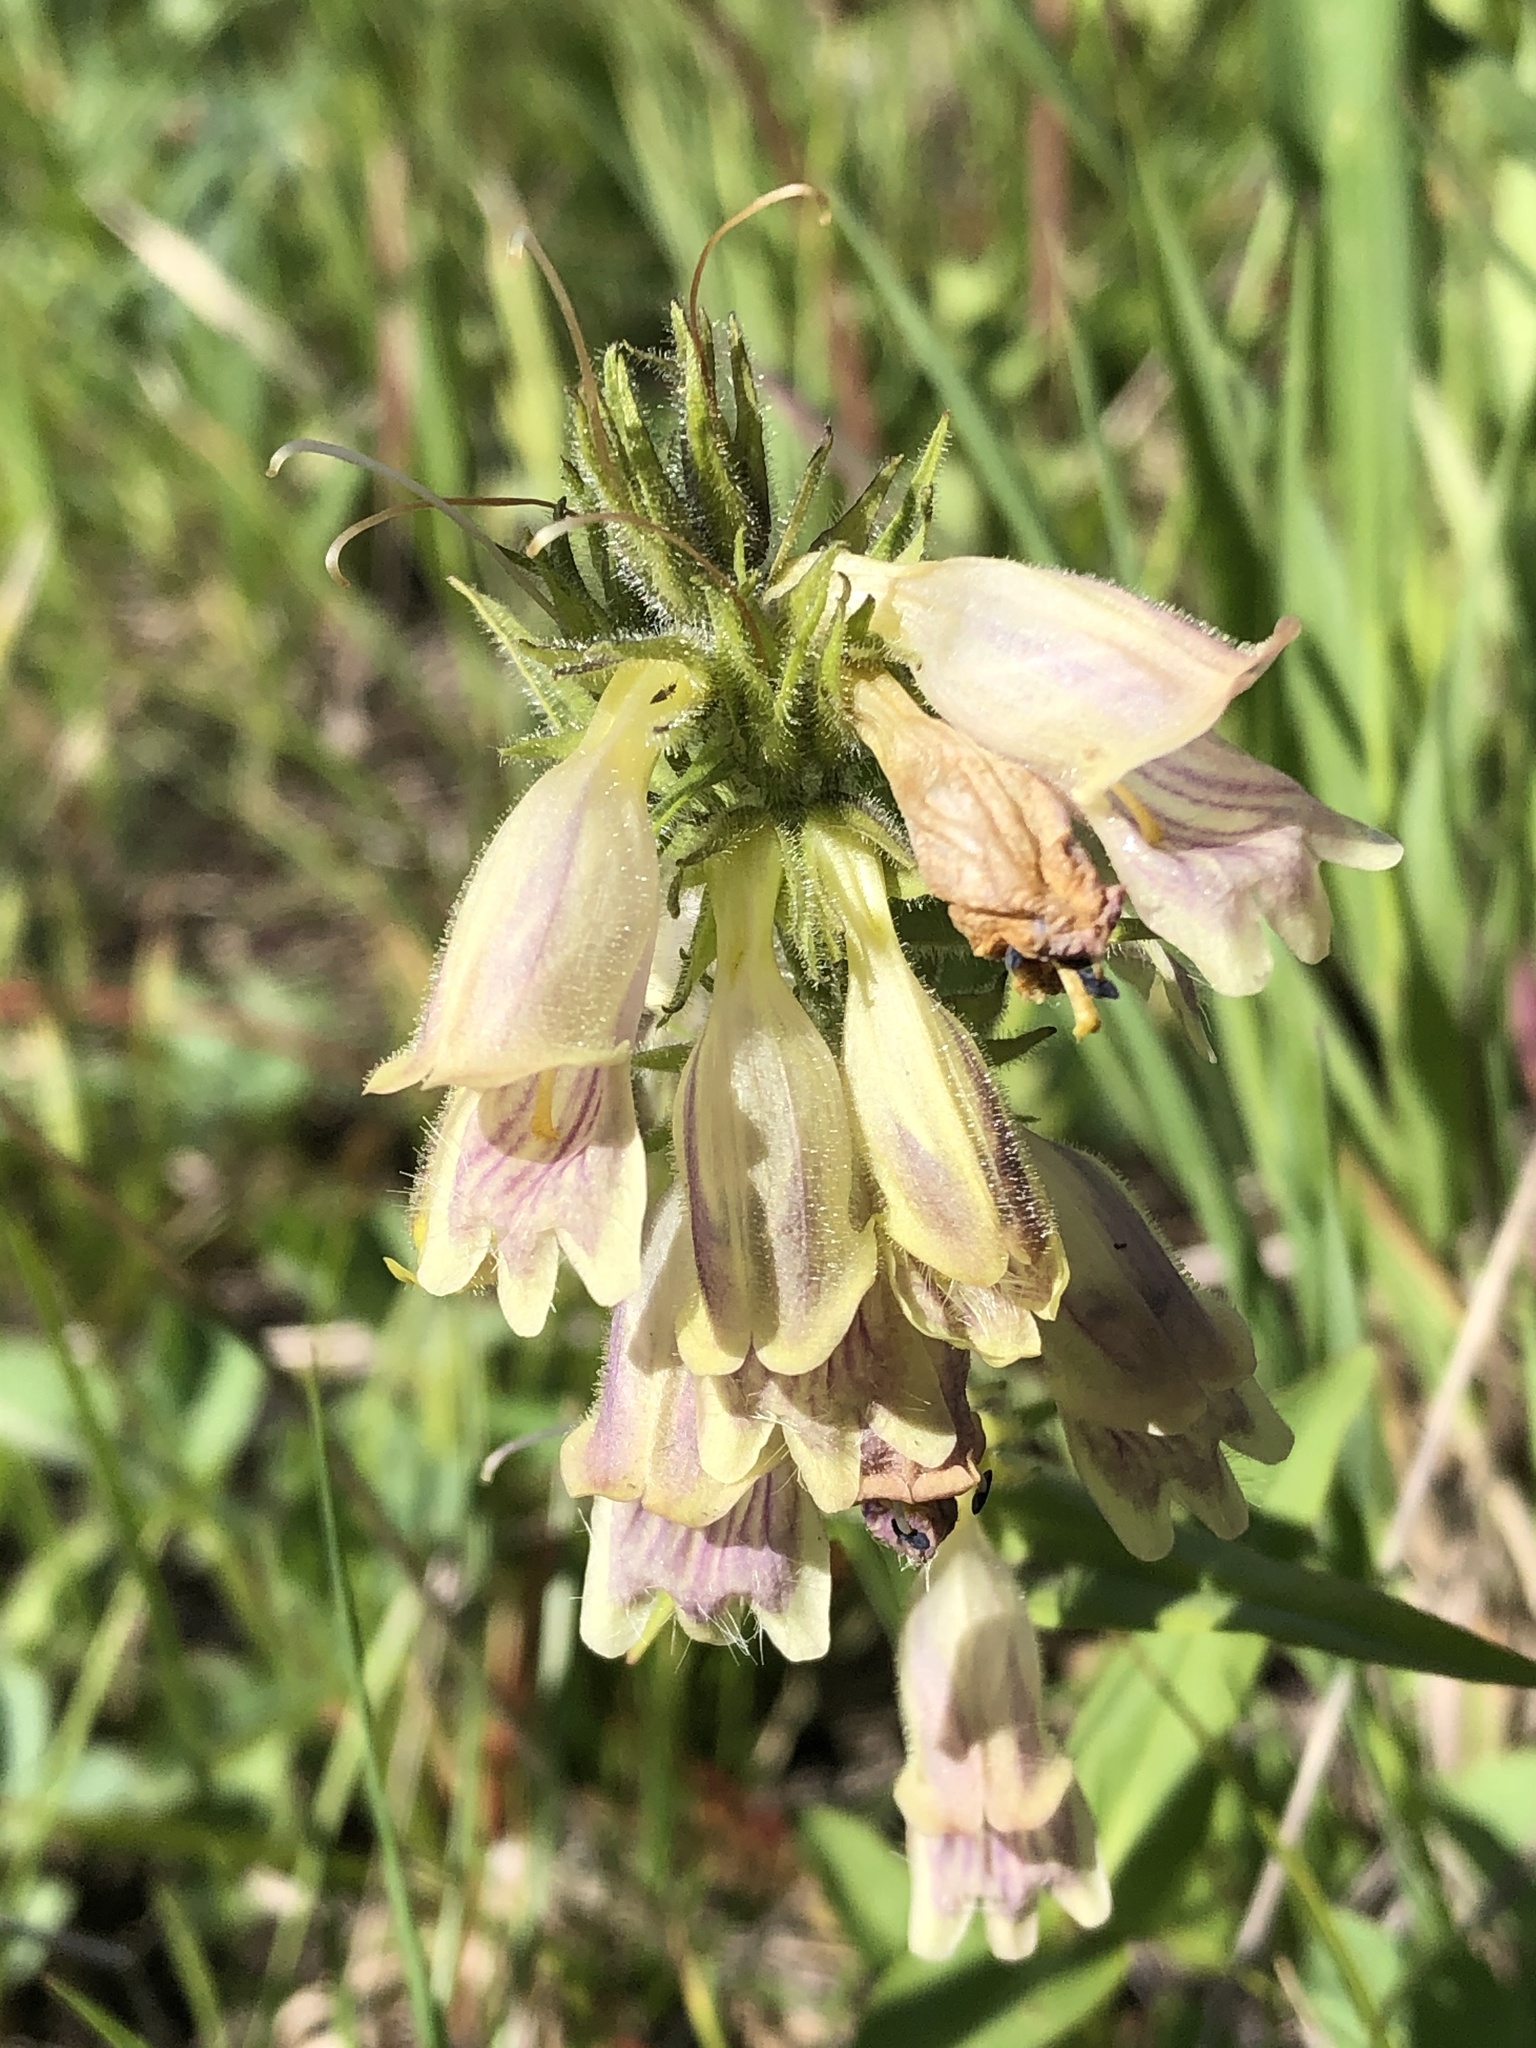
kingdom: Plantae
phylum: Tracheophyta
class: Magnoliopsida
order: Lamiales
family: Plantaginaceae
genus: Penstemon
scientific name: Penstemon whippleanus
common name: Whipple's penstemon
